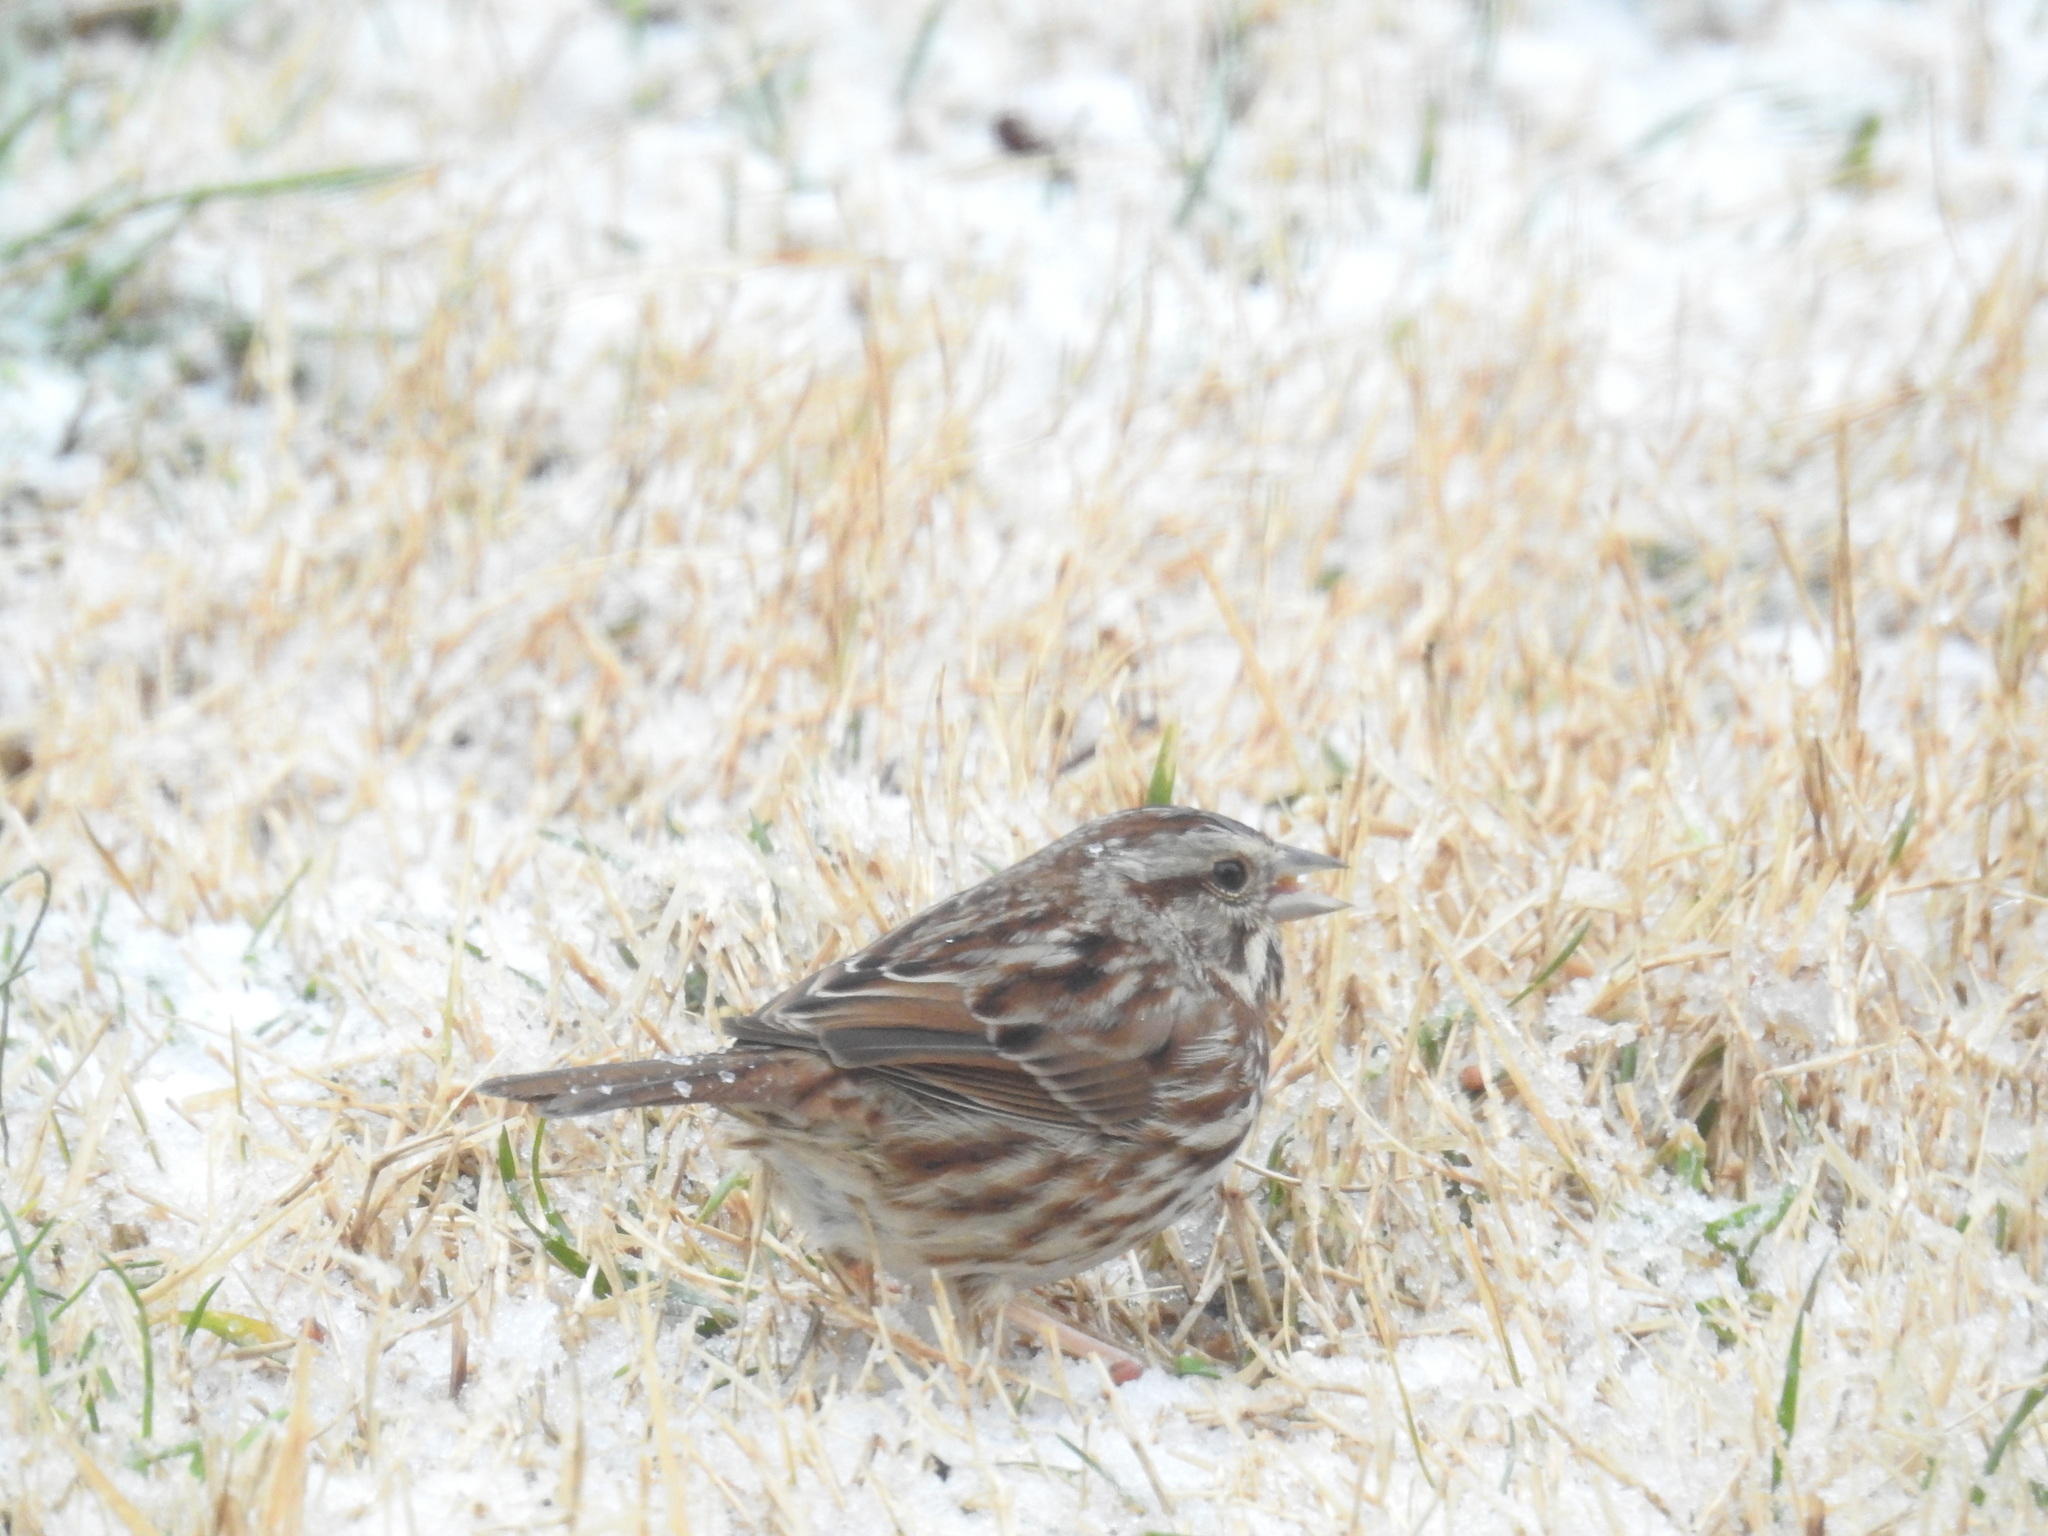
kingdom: Animalia
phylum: Chordata
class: Aves
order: Passeriformes
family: Passerellidae
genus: Melospiza
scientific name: Melospiza melodia
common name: Song sparrow
